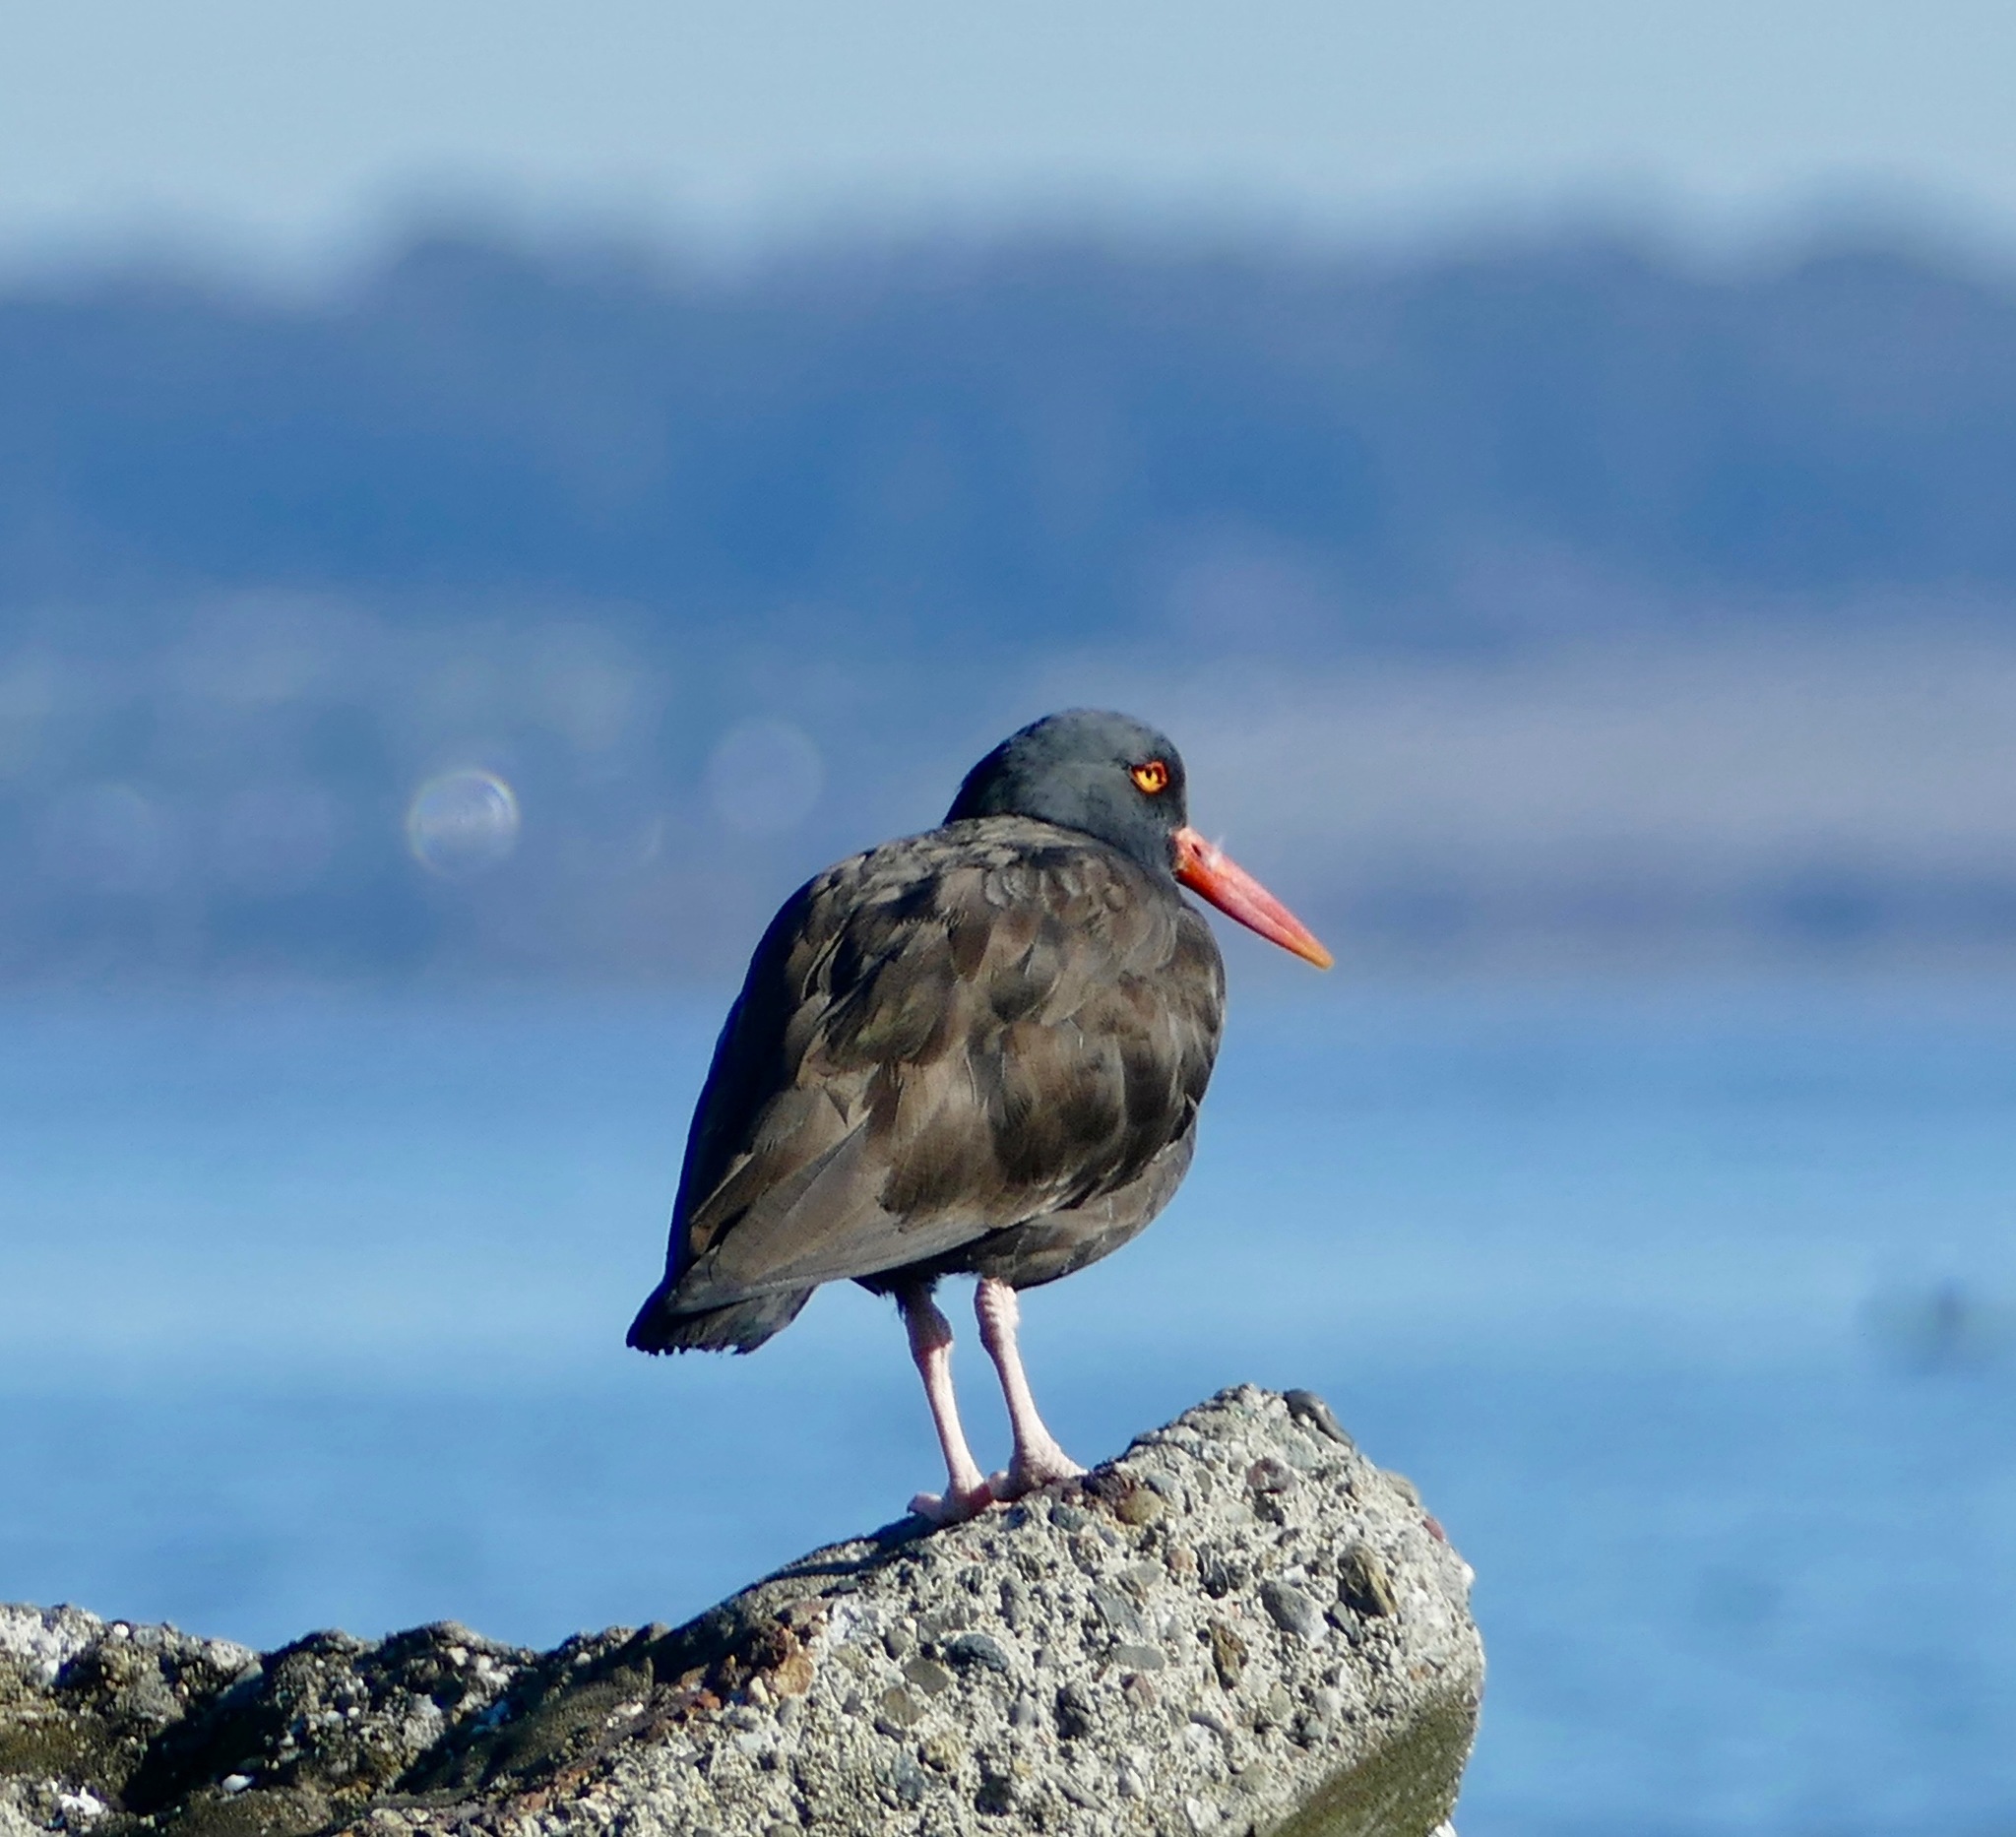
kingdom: Animalia
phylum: Chordata
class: Aves
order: Charadriiformes
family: Haematopodidae
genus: Haematopus
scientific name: Haematopus bachmani
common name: Black oystercatcher
